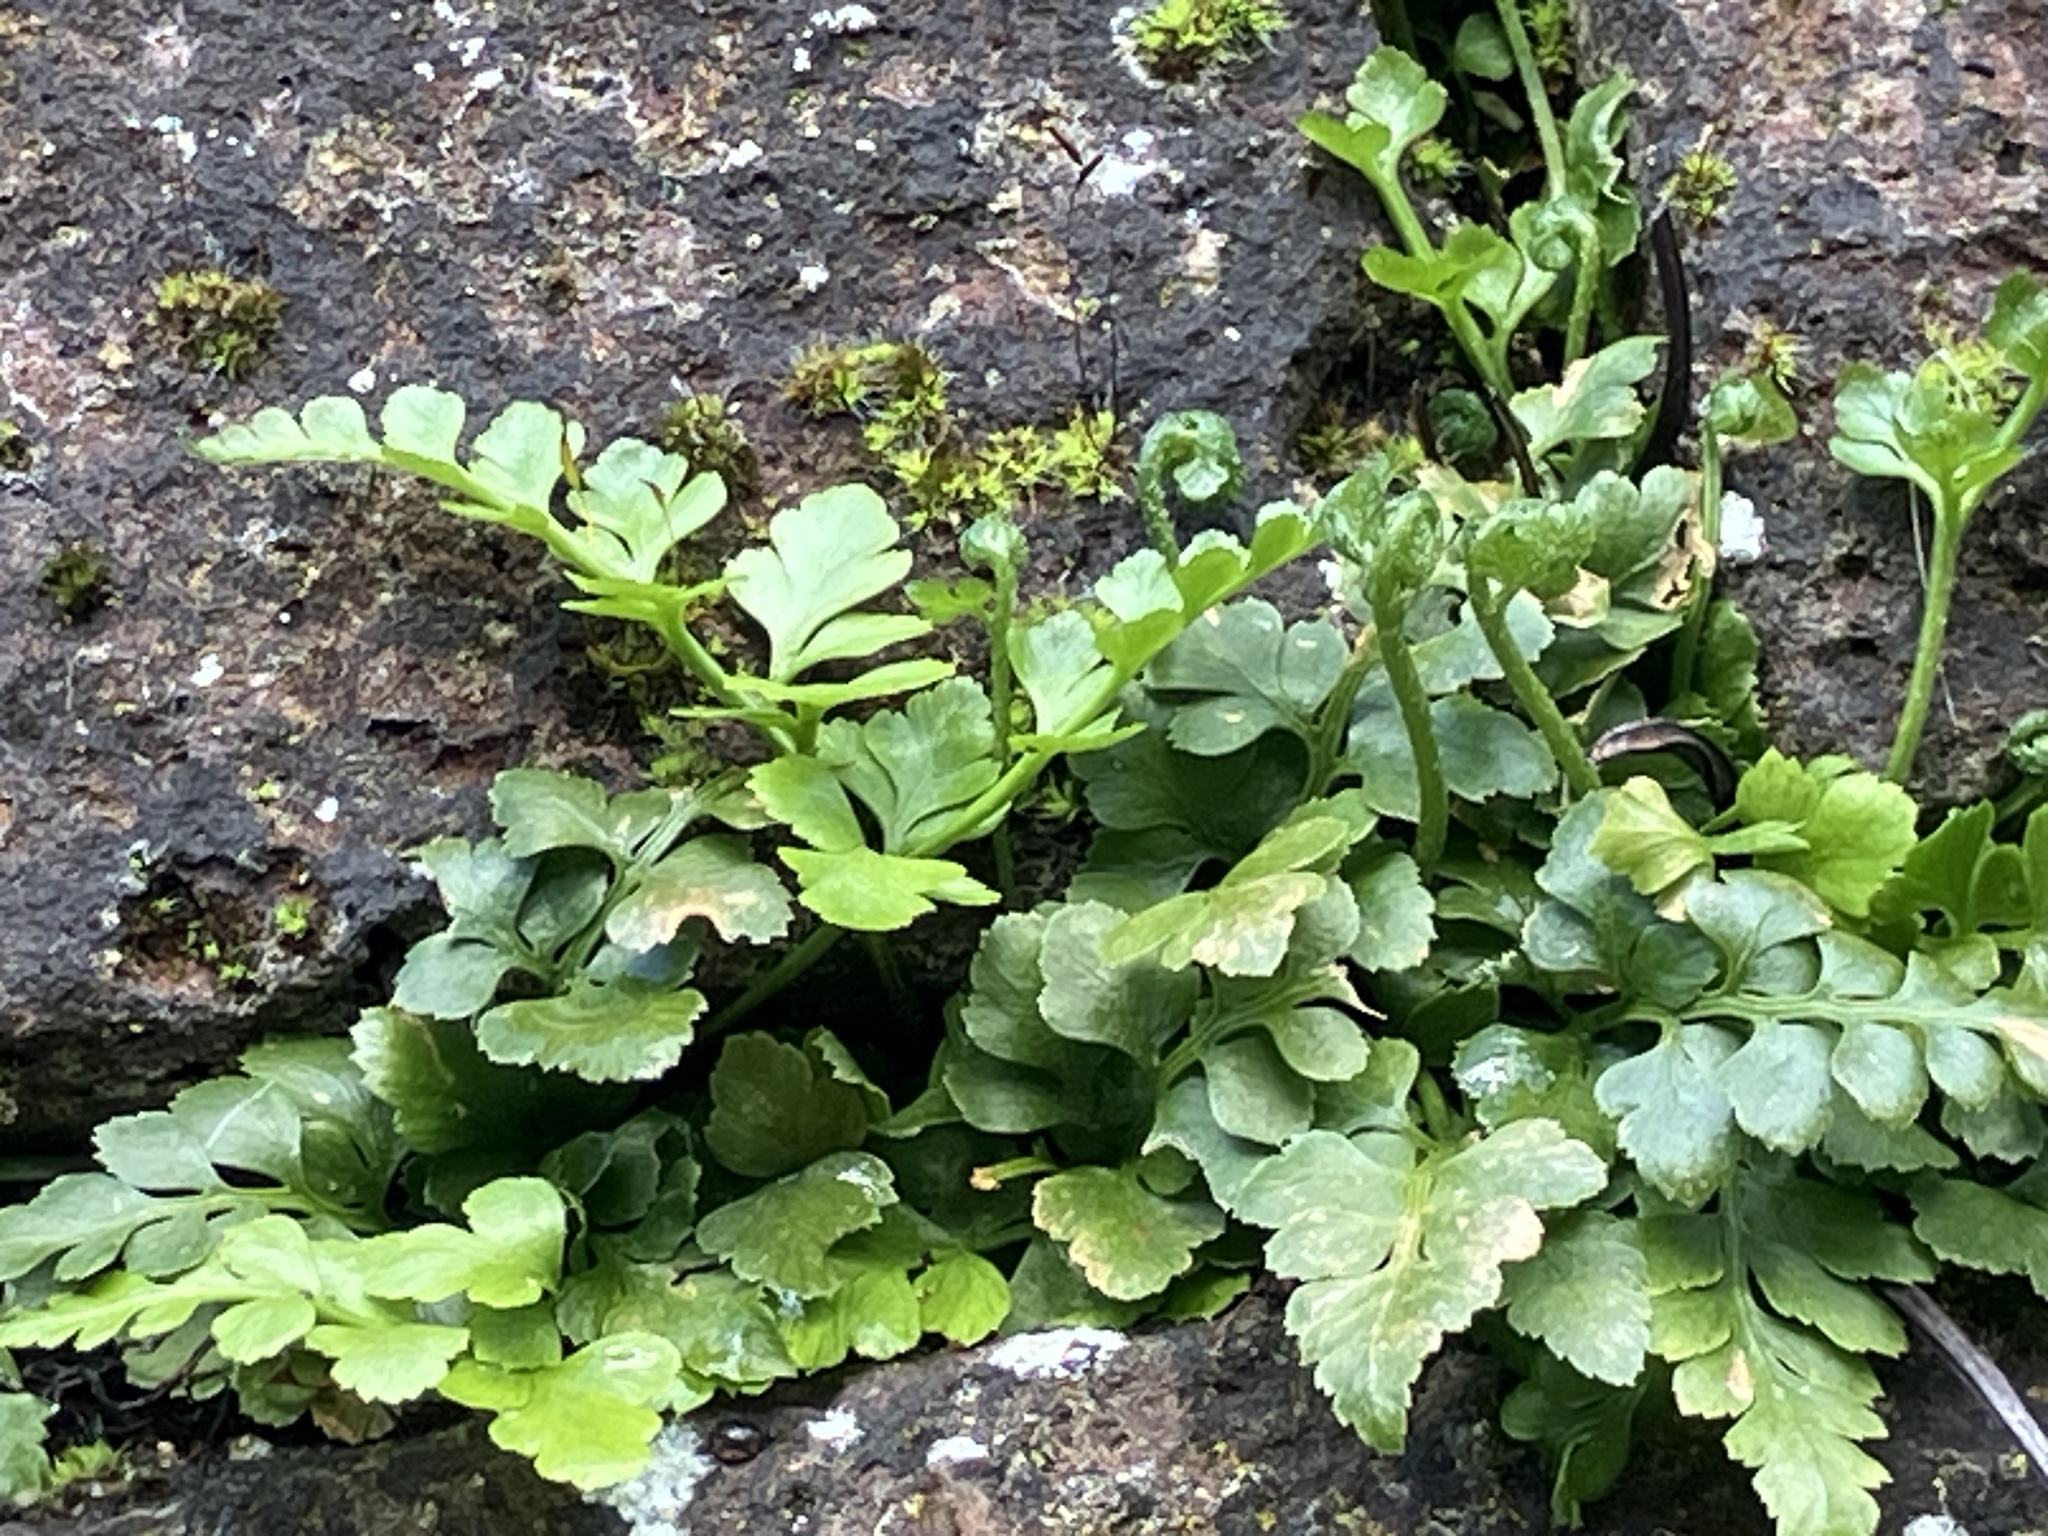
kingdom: Plantae
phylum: Tracheophyta
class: Polypodiopsida
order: Polypodiales
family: Aspleniaceae
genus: Asplenium
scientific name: Asplenium adiantum-nigrum
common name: Black spleenwort
